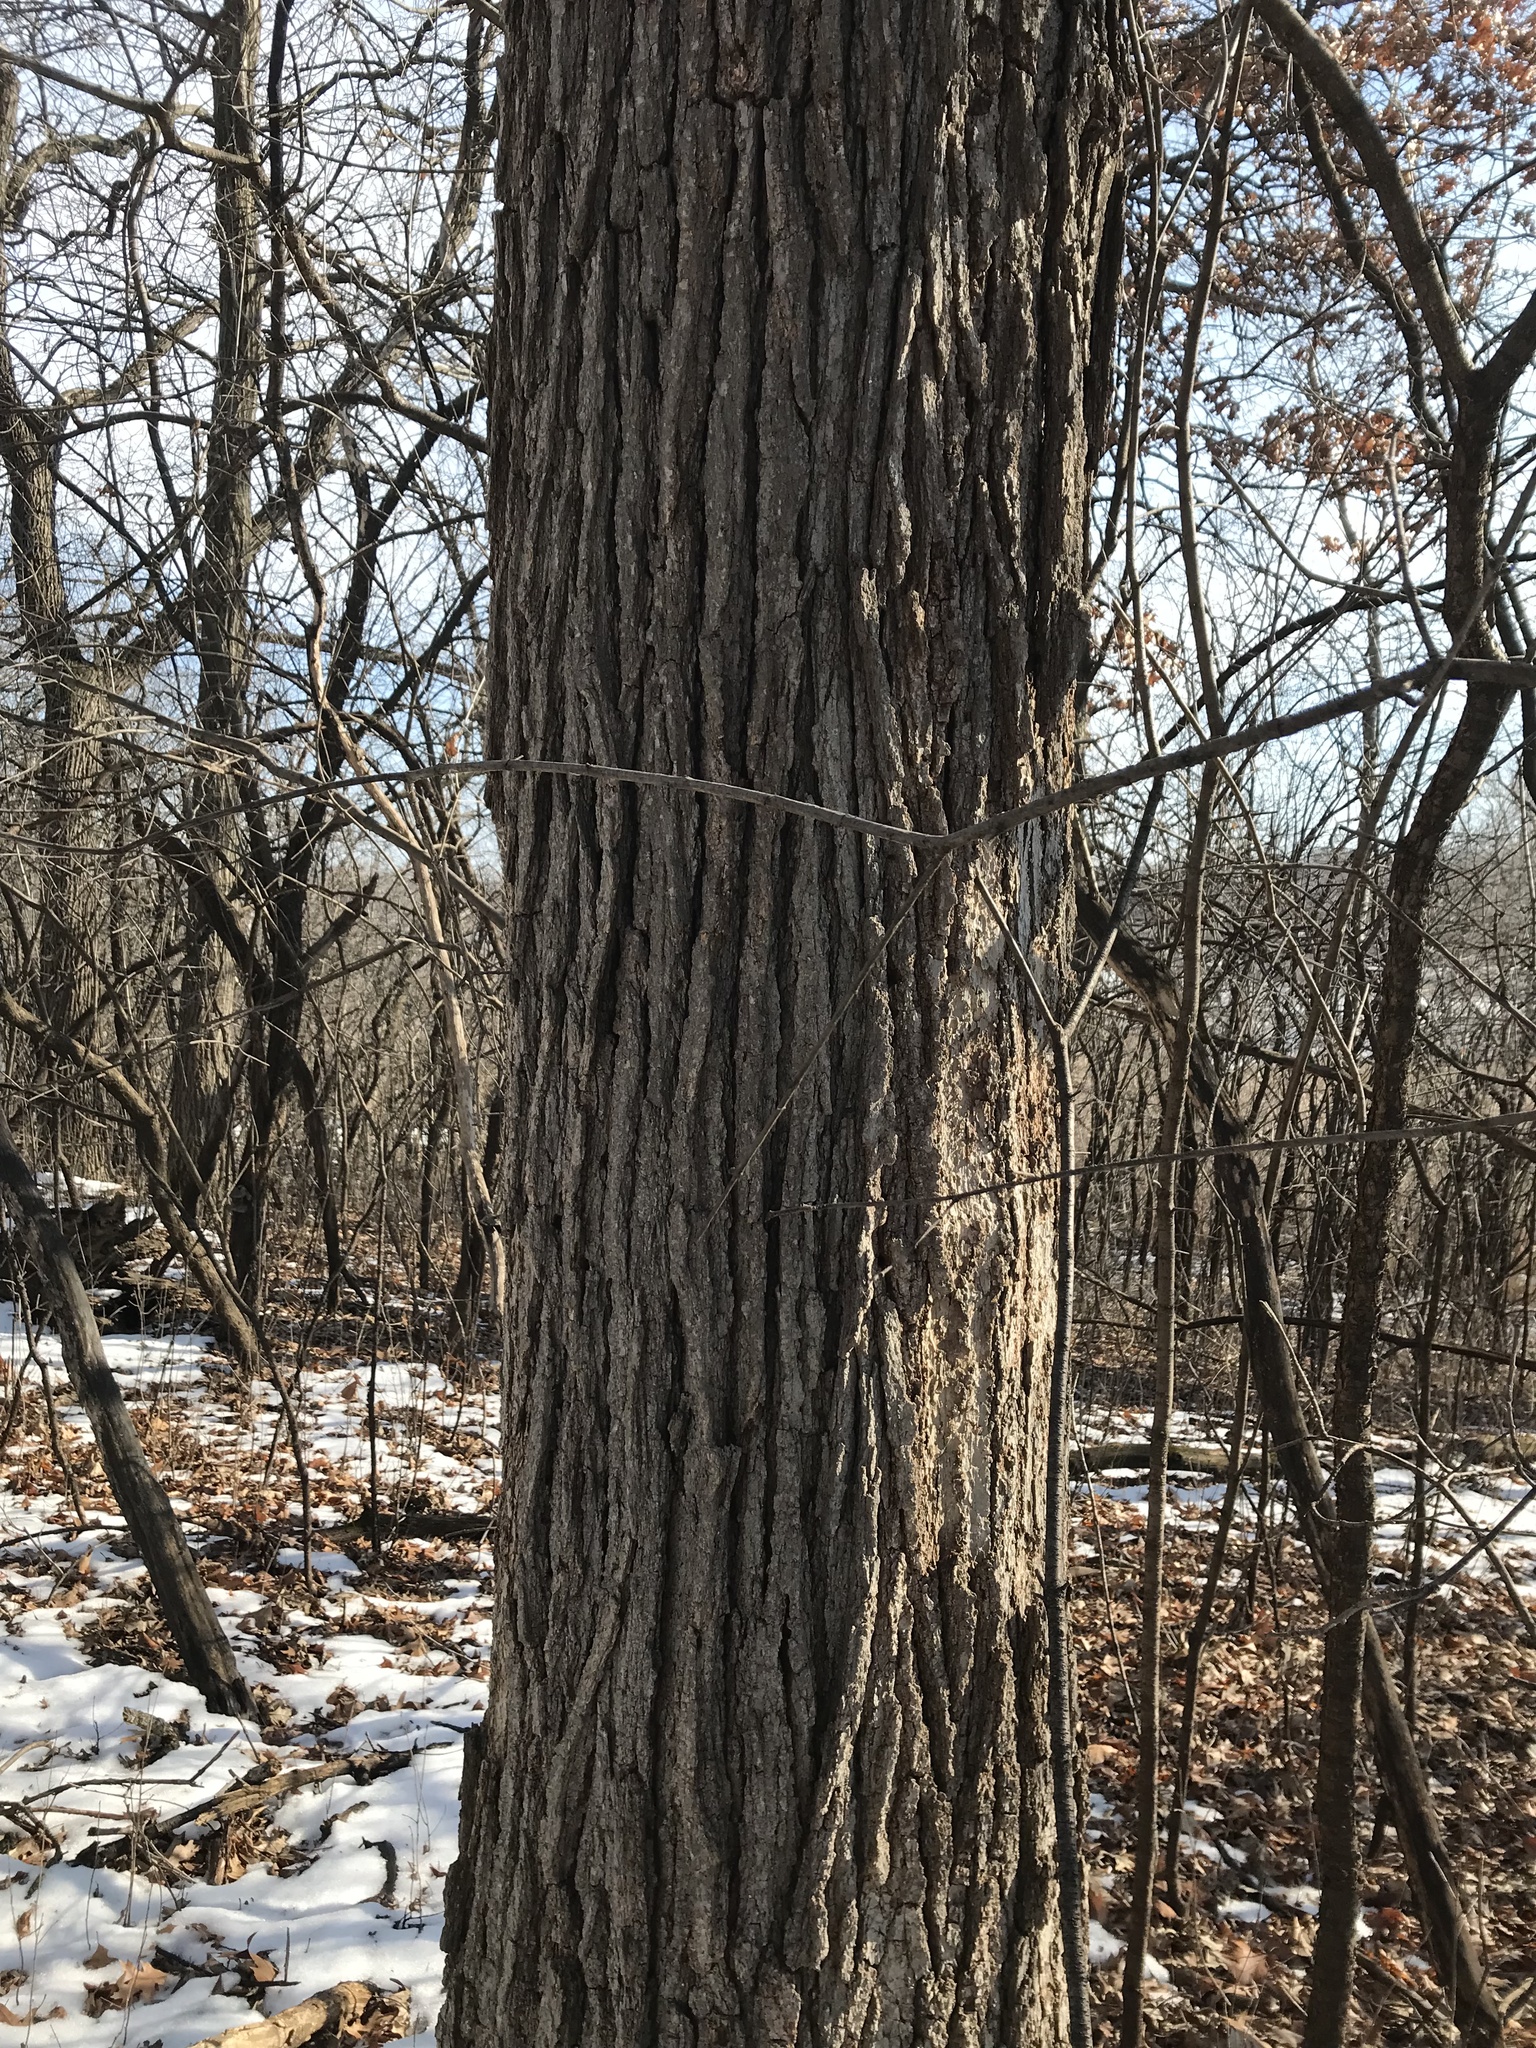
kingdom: Plantae
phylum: Tracheophyta
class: Magnoliopsida
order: Fagales
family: Fagaceae
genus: Quercus
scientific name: Quercus macrocarpa
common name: Bur oak
